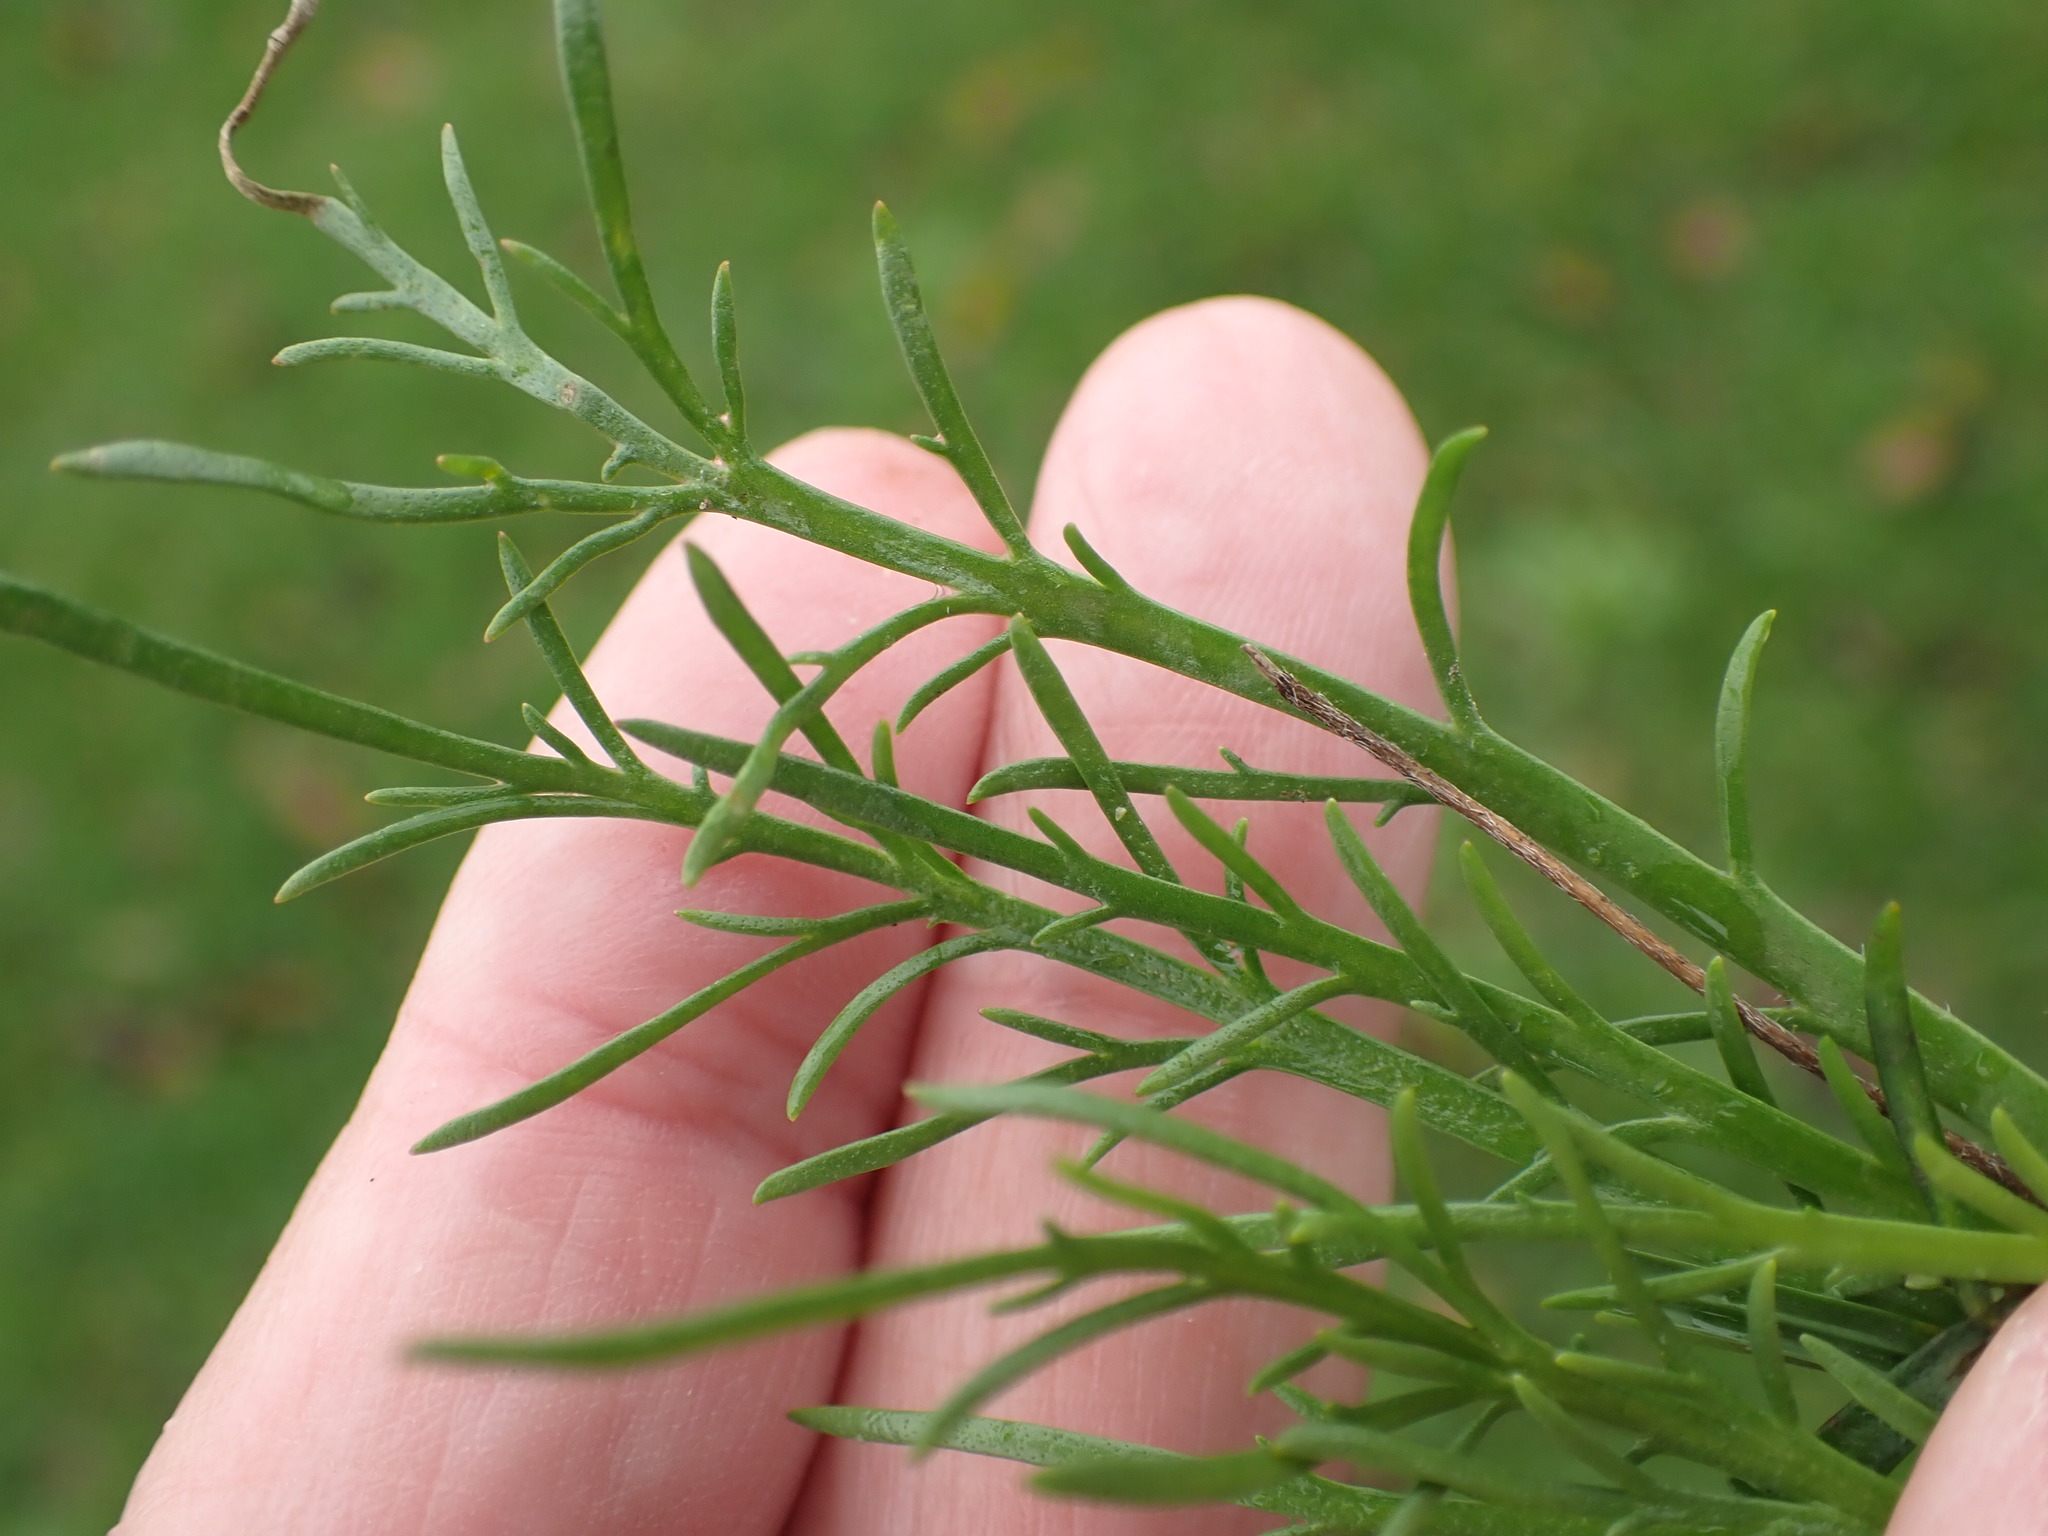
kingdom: Plantae
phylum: Tracheophyta
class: Magnoliopsida
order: Lamiales
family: Plantaginaceae
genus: Plantago
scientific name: Plantago coronopus
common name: Buck's-horn plantain
